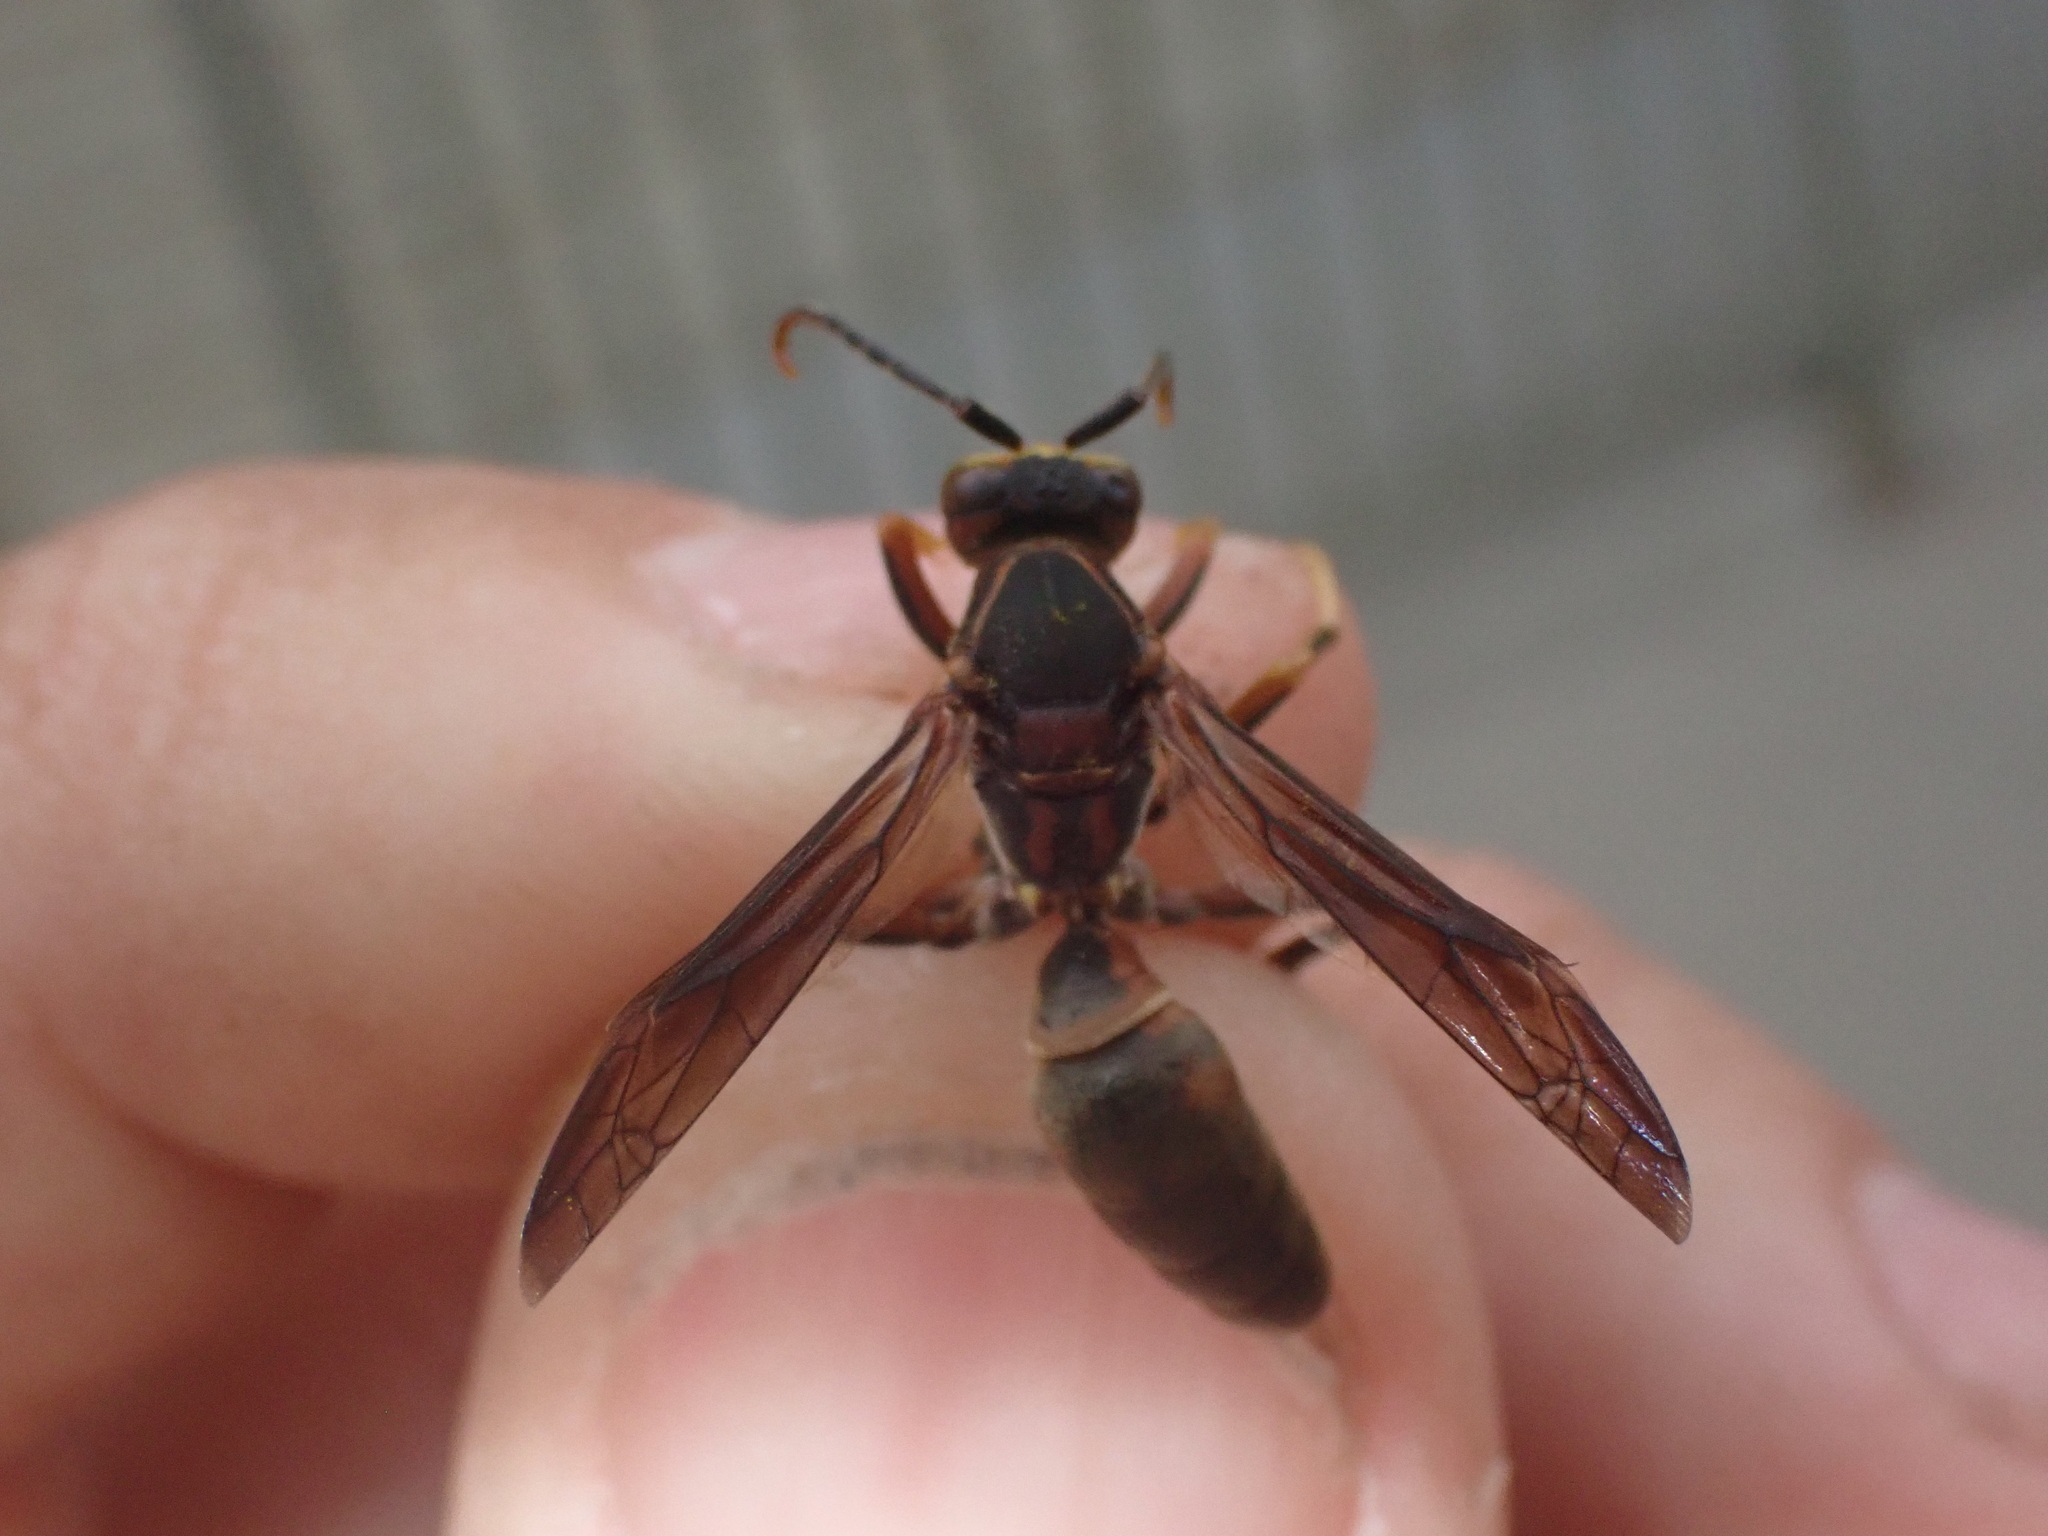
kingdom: Animalia
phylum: Arthropoda
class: Insecta
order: Hymenoptera
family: Eumenidae
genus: Polistes
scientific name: Polistes metricus
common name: Metric paper wasp
